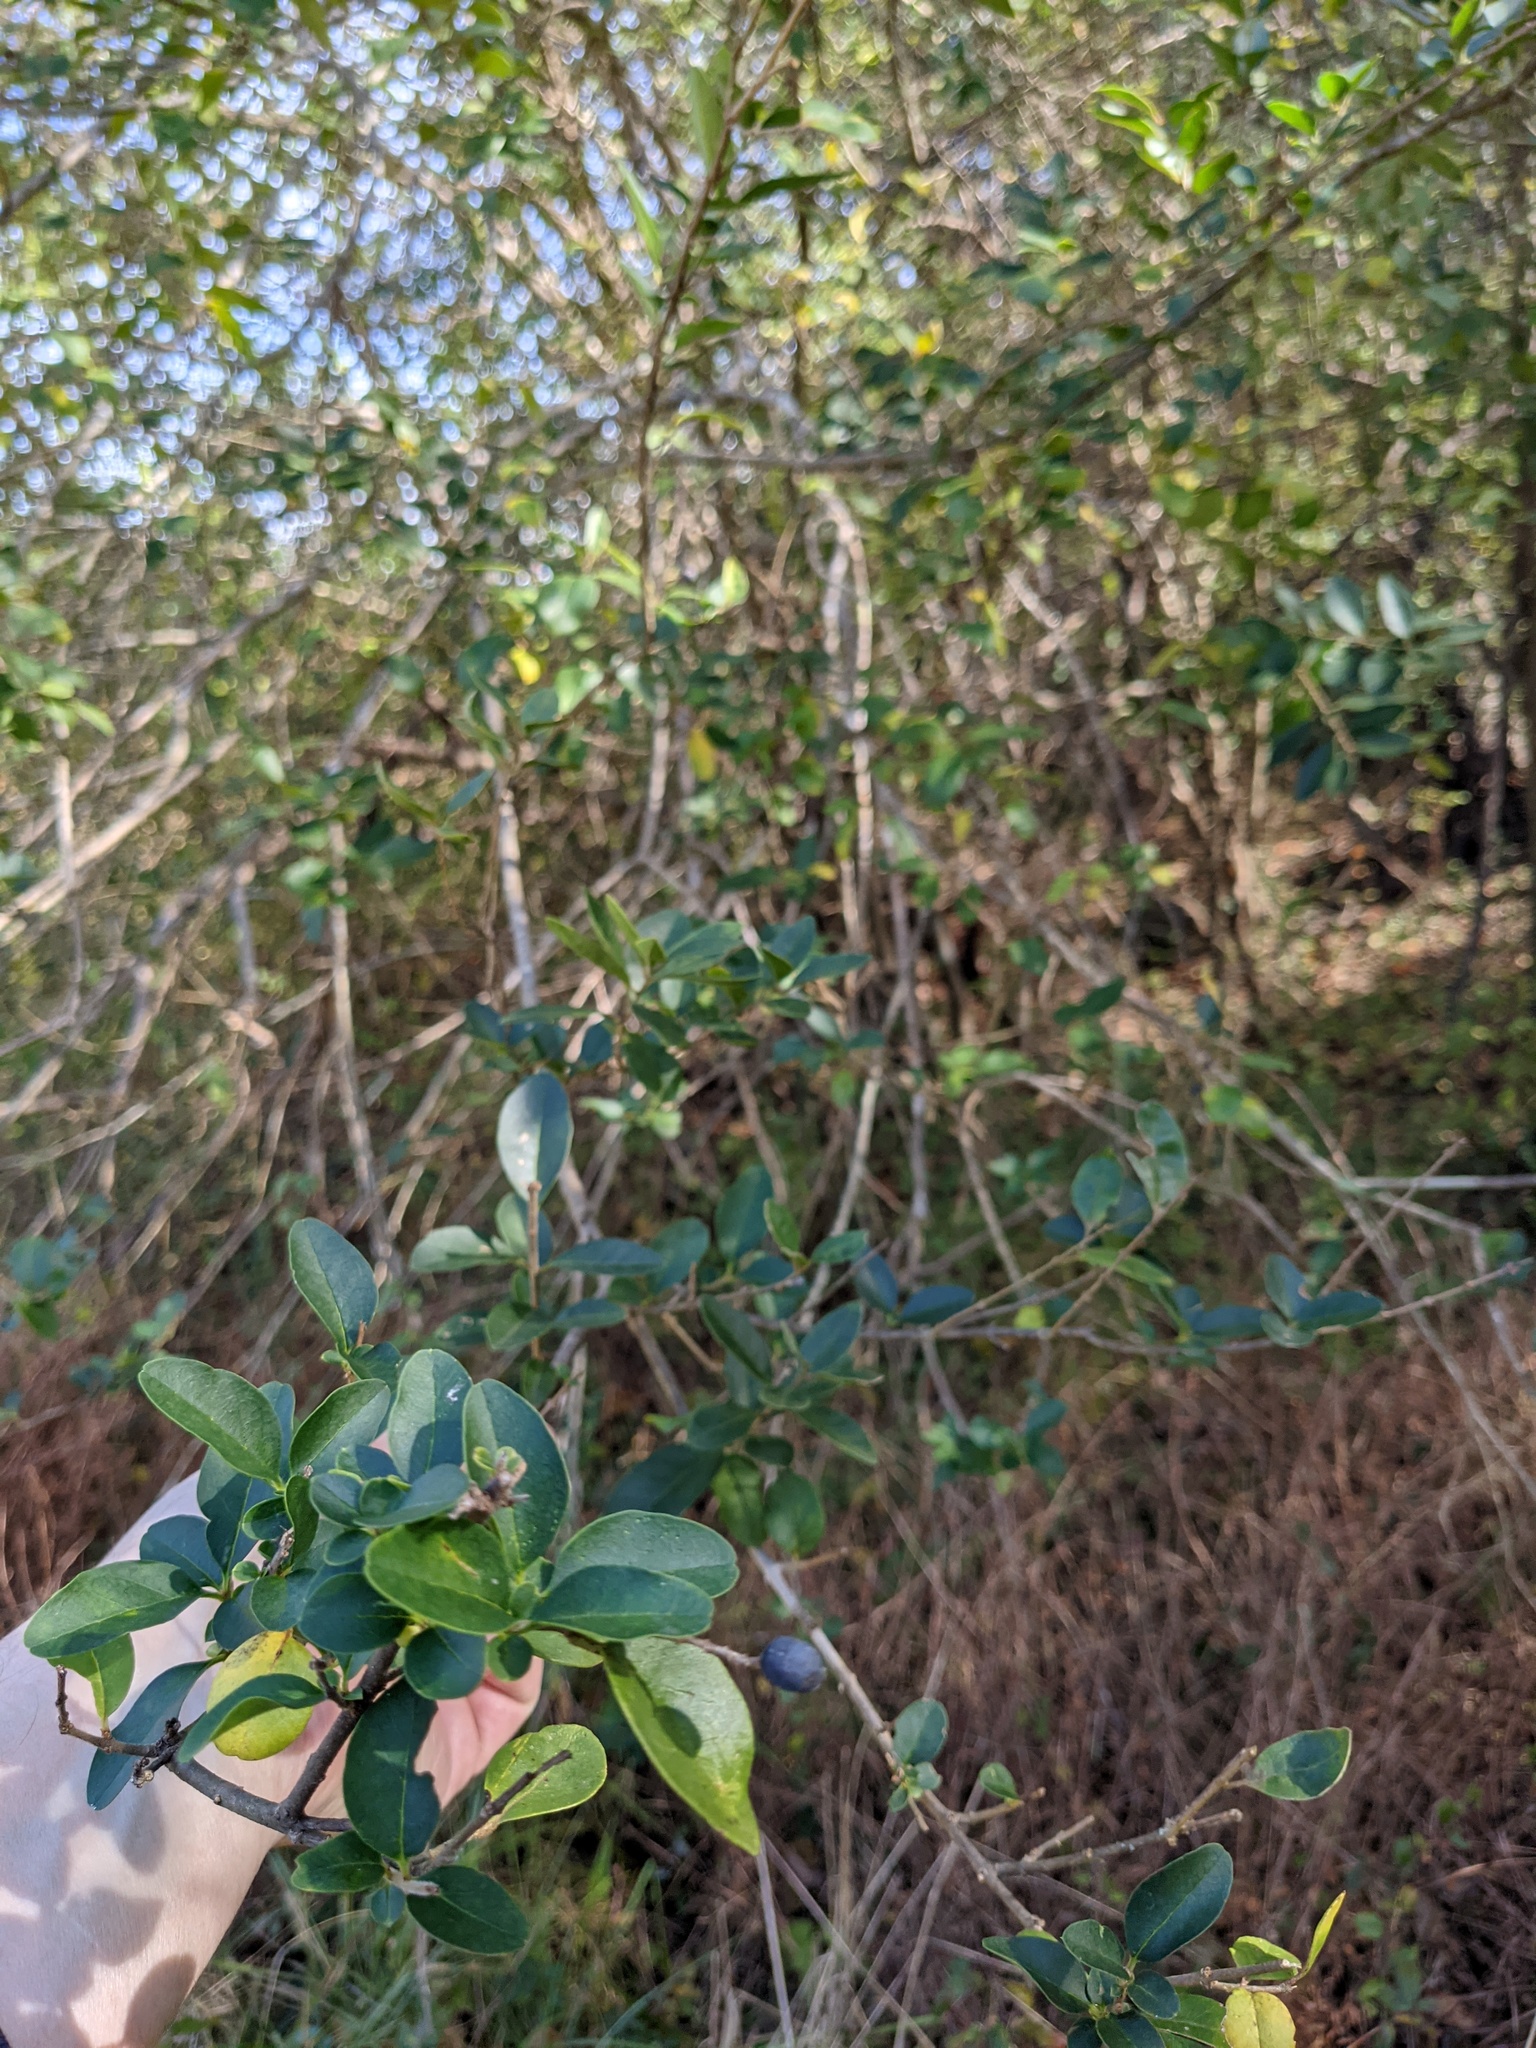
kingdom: Plantae
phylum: Tracheophyta
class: Magnoliopsida
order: Lamiales
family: Oleaceae
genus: Ligustrum
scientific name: Ligustrum sinense
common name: Chinese privet
